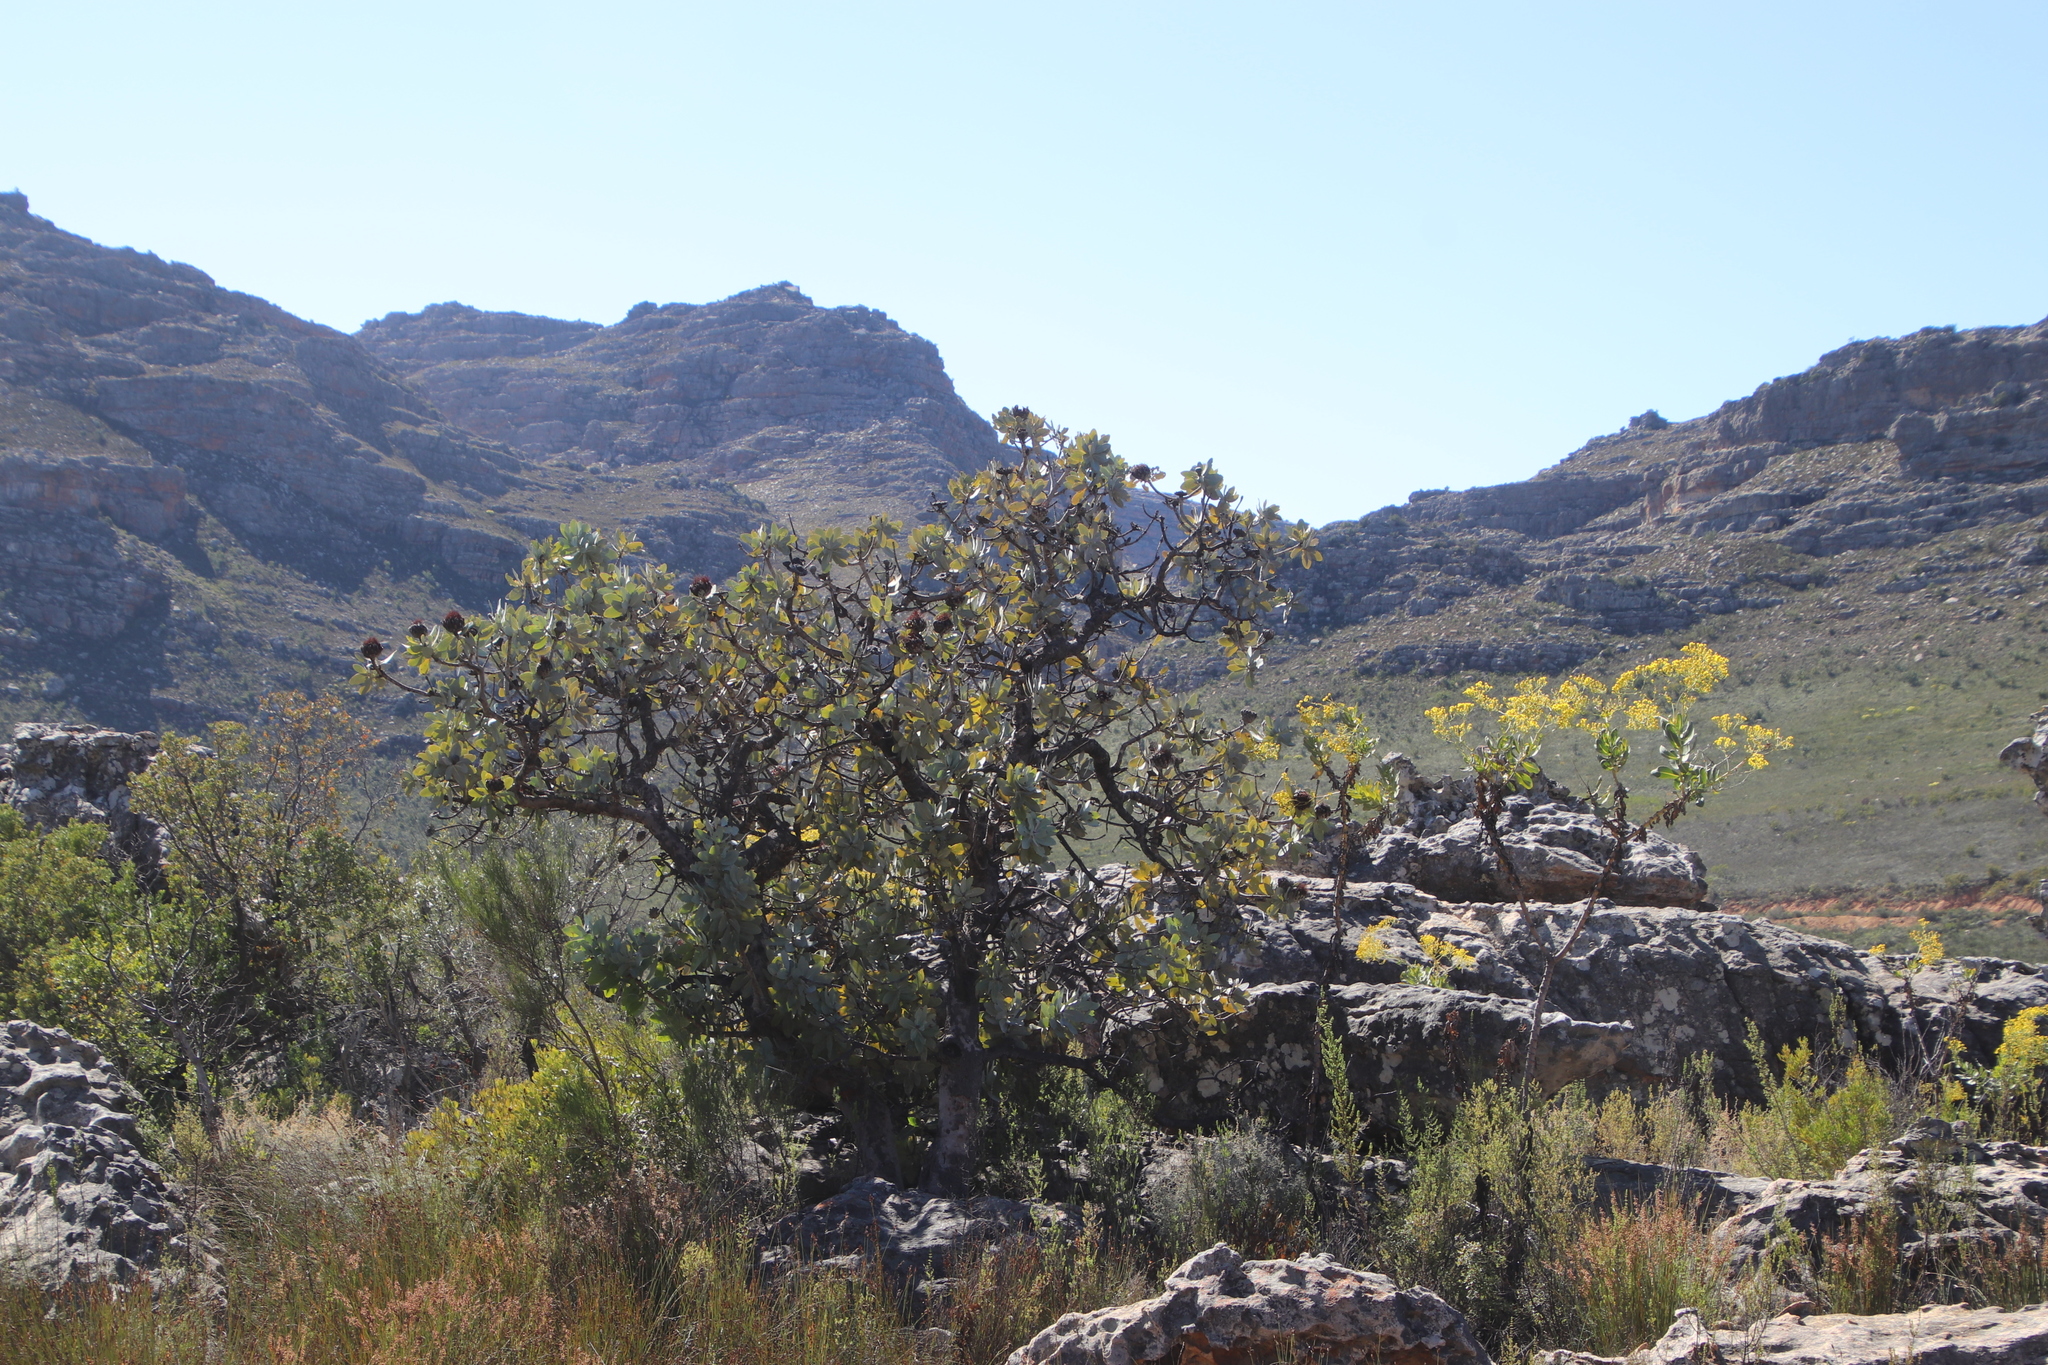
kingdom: Plantae
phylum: Tracheophyta
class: Magnoliopsida
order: Proteales
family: Proteaceae
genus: Protea
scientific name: Protea nitida
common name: Tree protea
